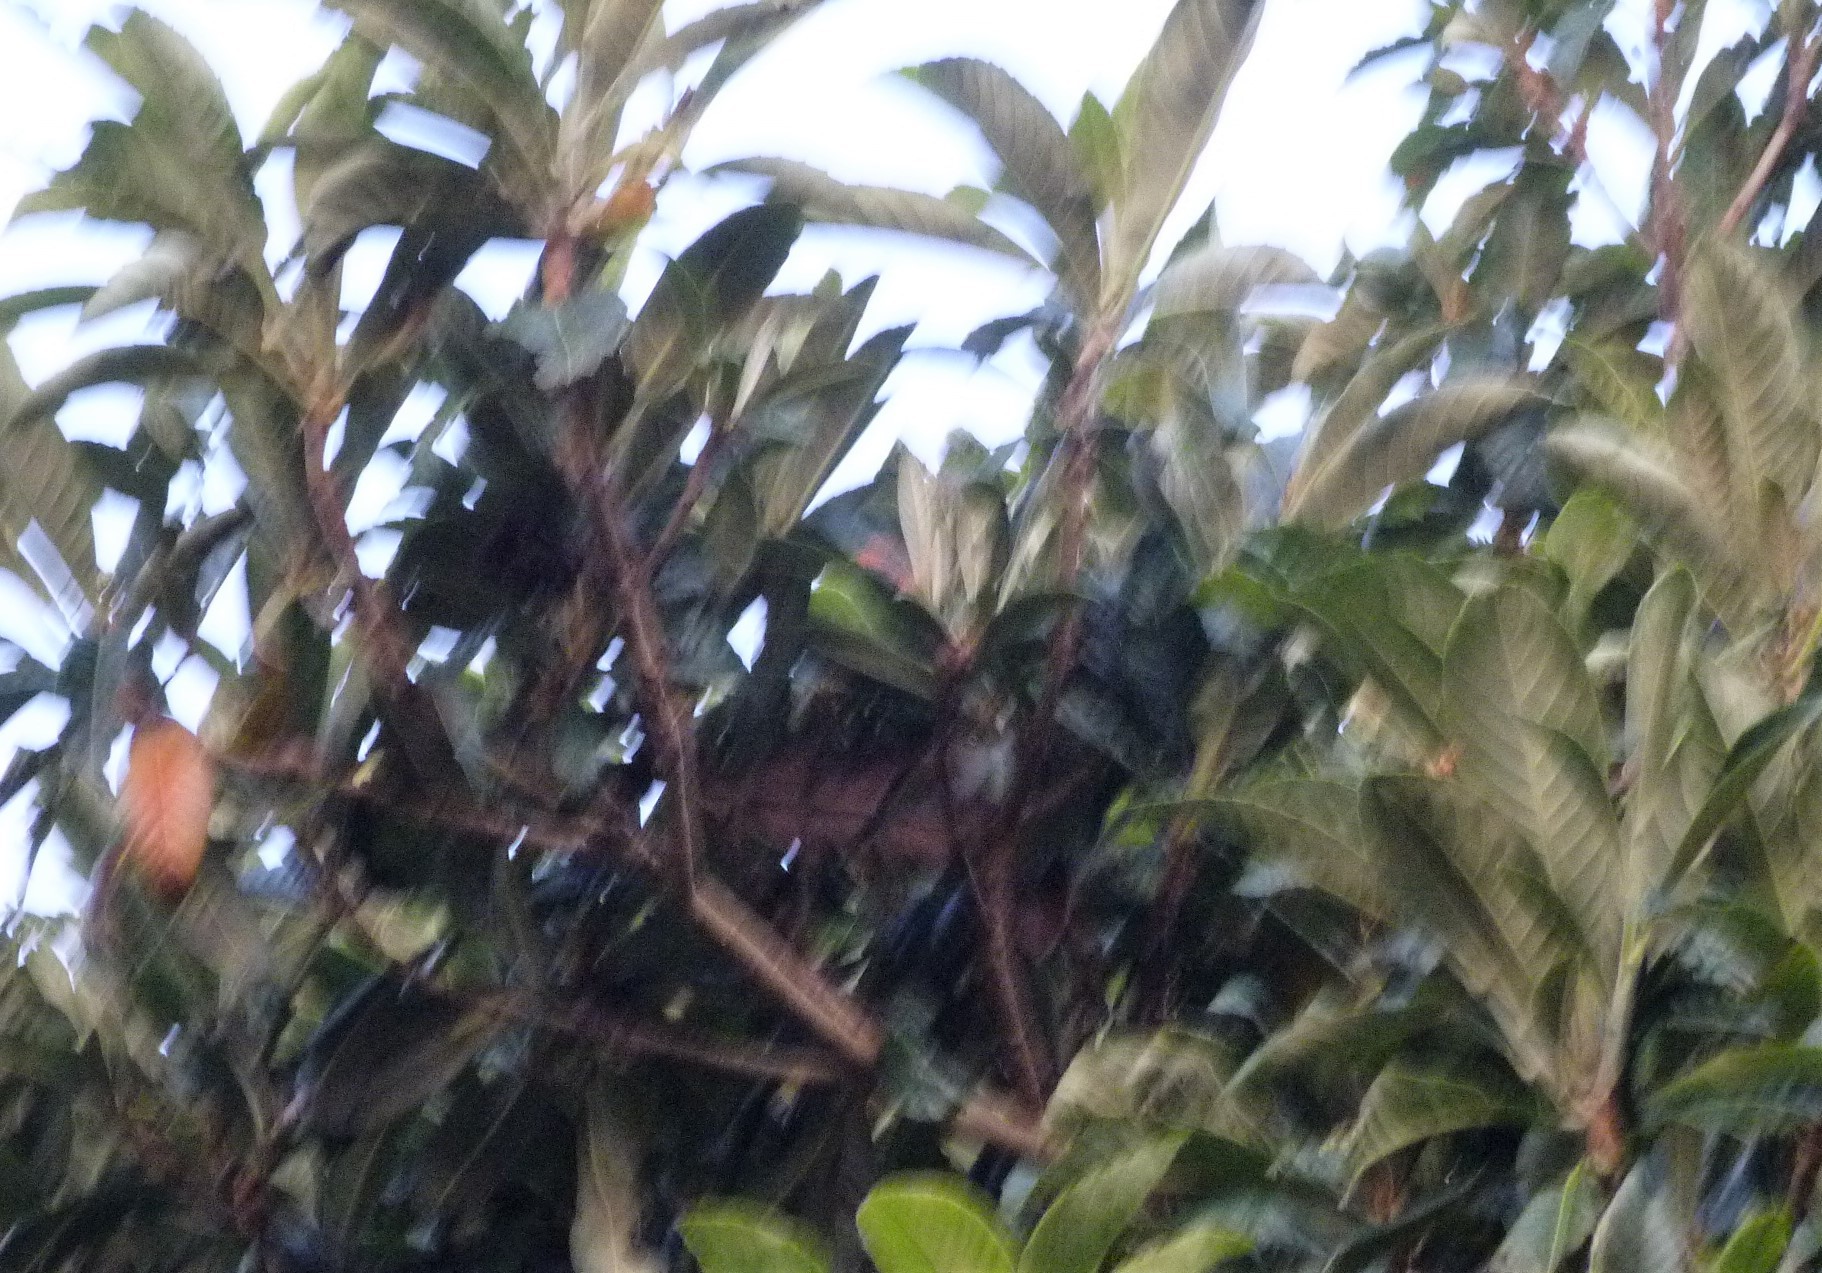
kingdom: Animalia
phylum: Chordata
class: Aves
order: Passeriformes
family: Zosteropidae
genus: Zosterops
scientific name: Zosterops lateralis
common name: Silvereye
